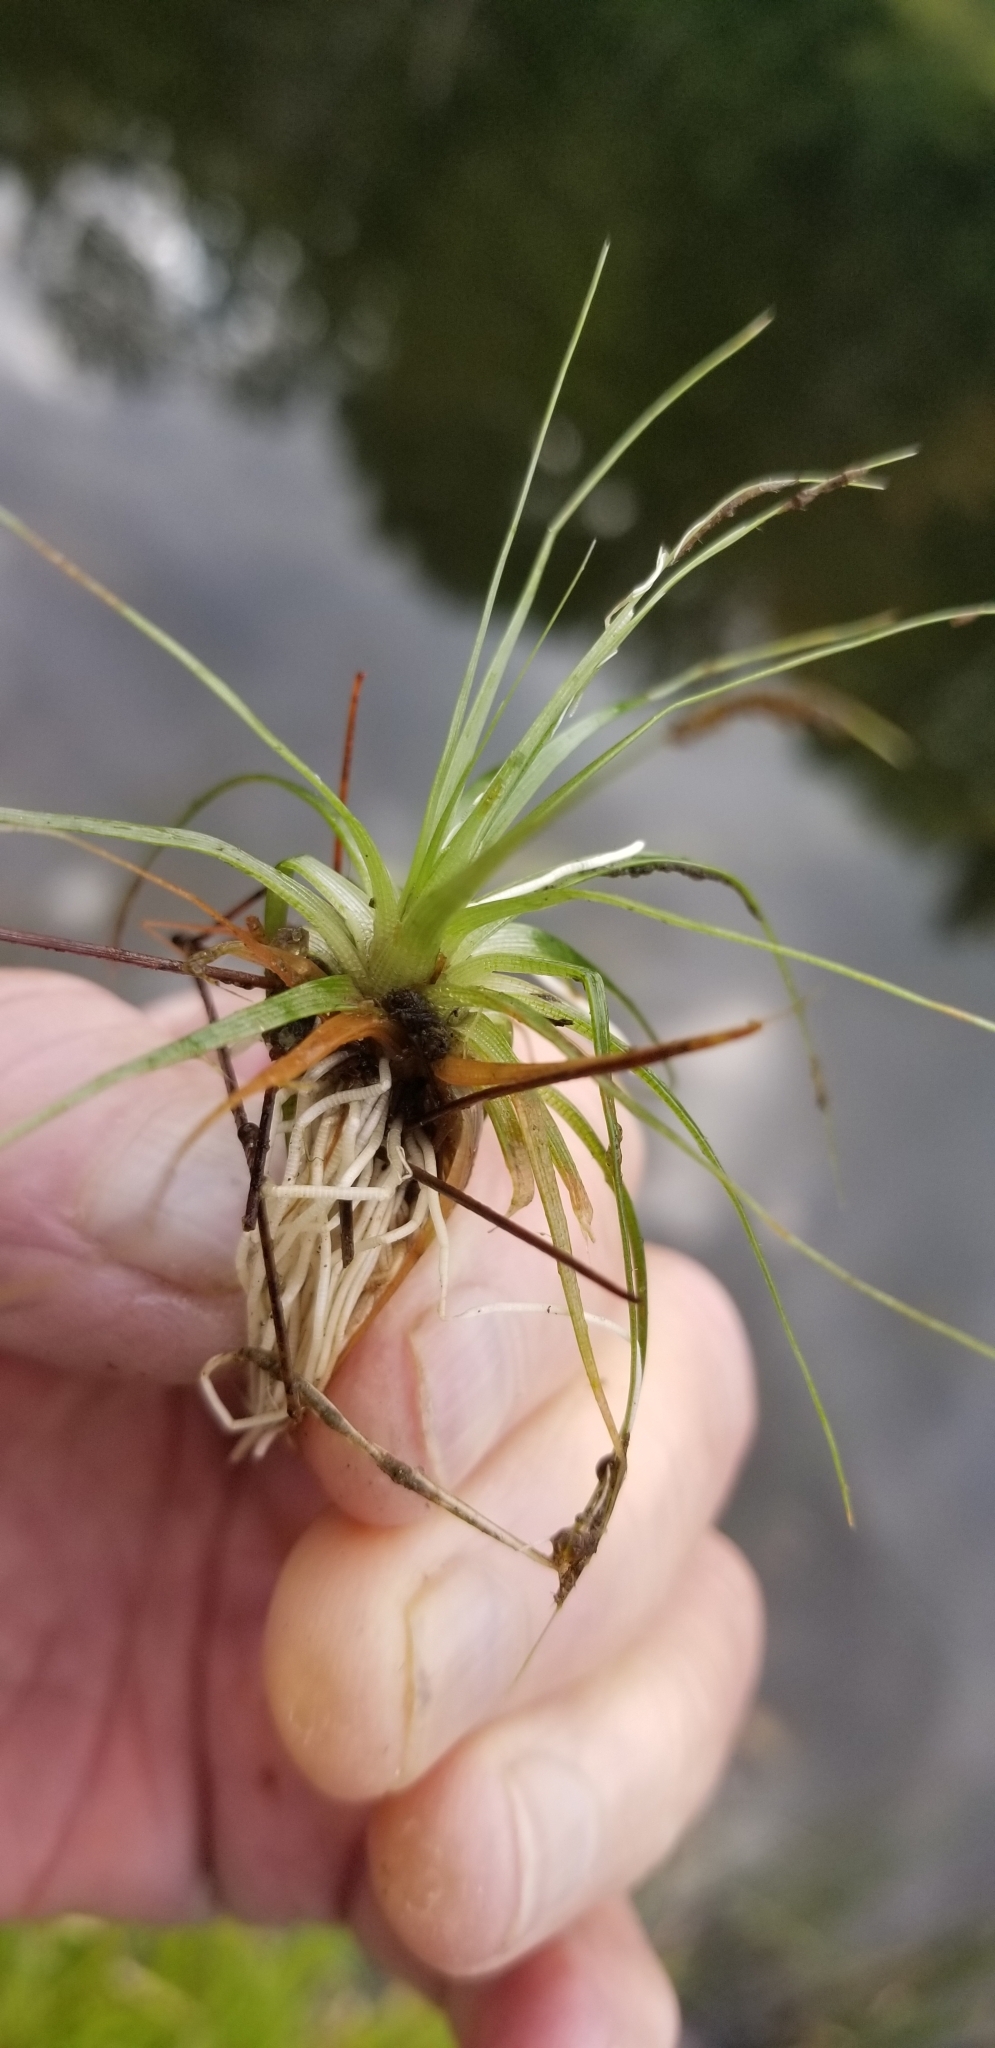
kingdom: Plantae
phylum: Tracheophyta
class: Liliopsida
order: Poales
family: Eriocaulaceae
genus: Eriocaulon
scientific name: Eriocaulon aquaticum
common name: Pipewort
